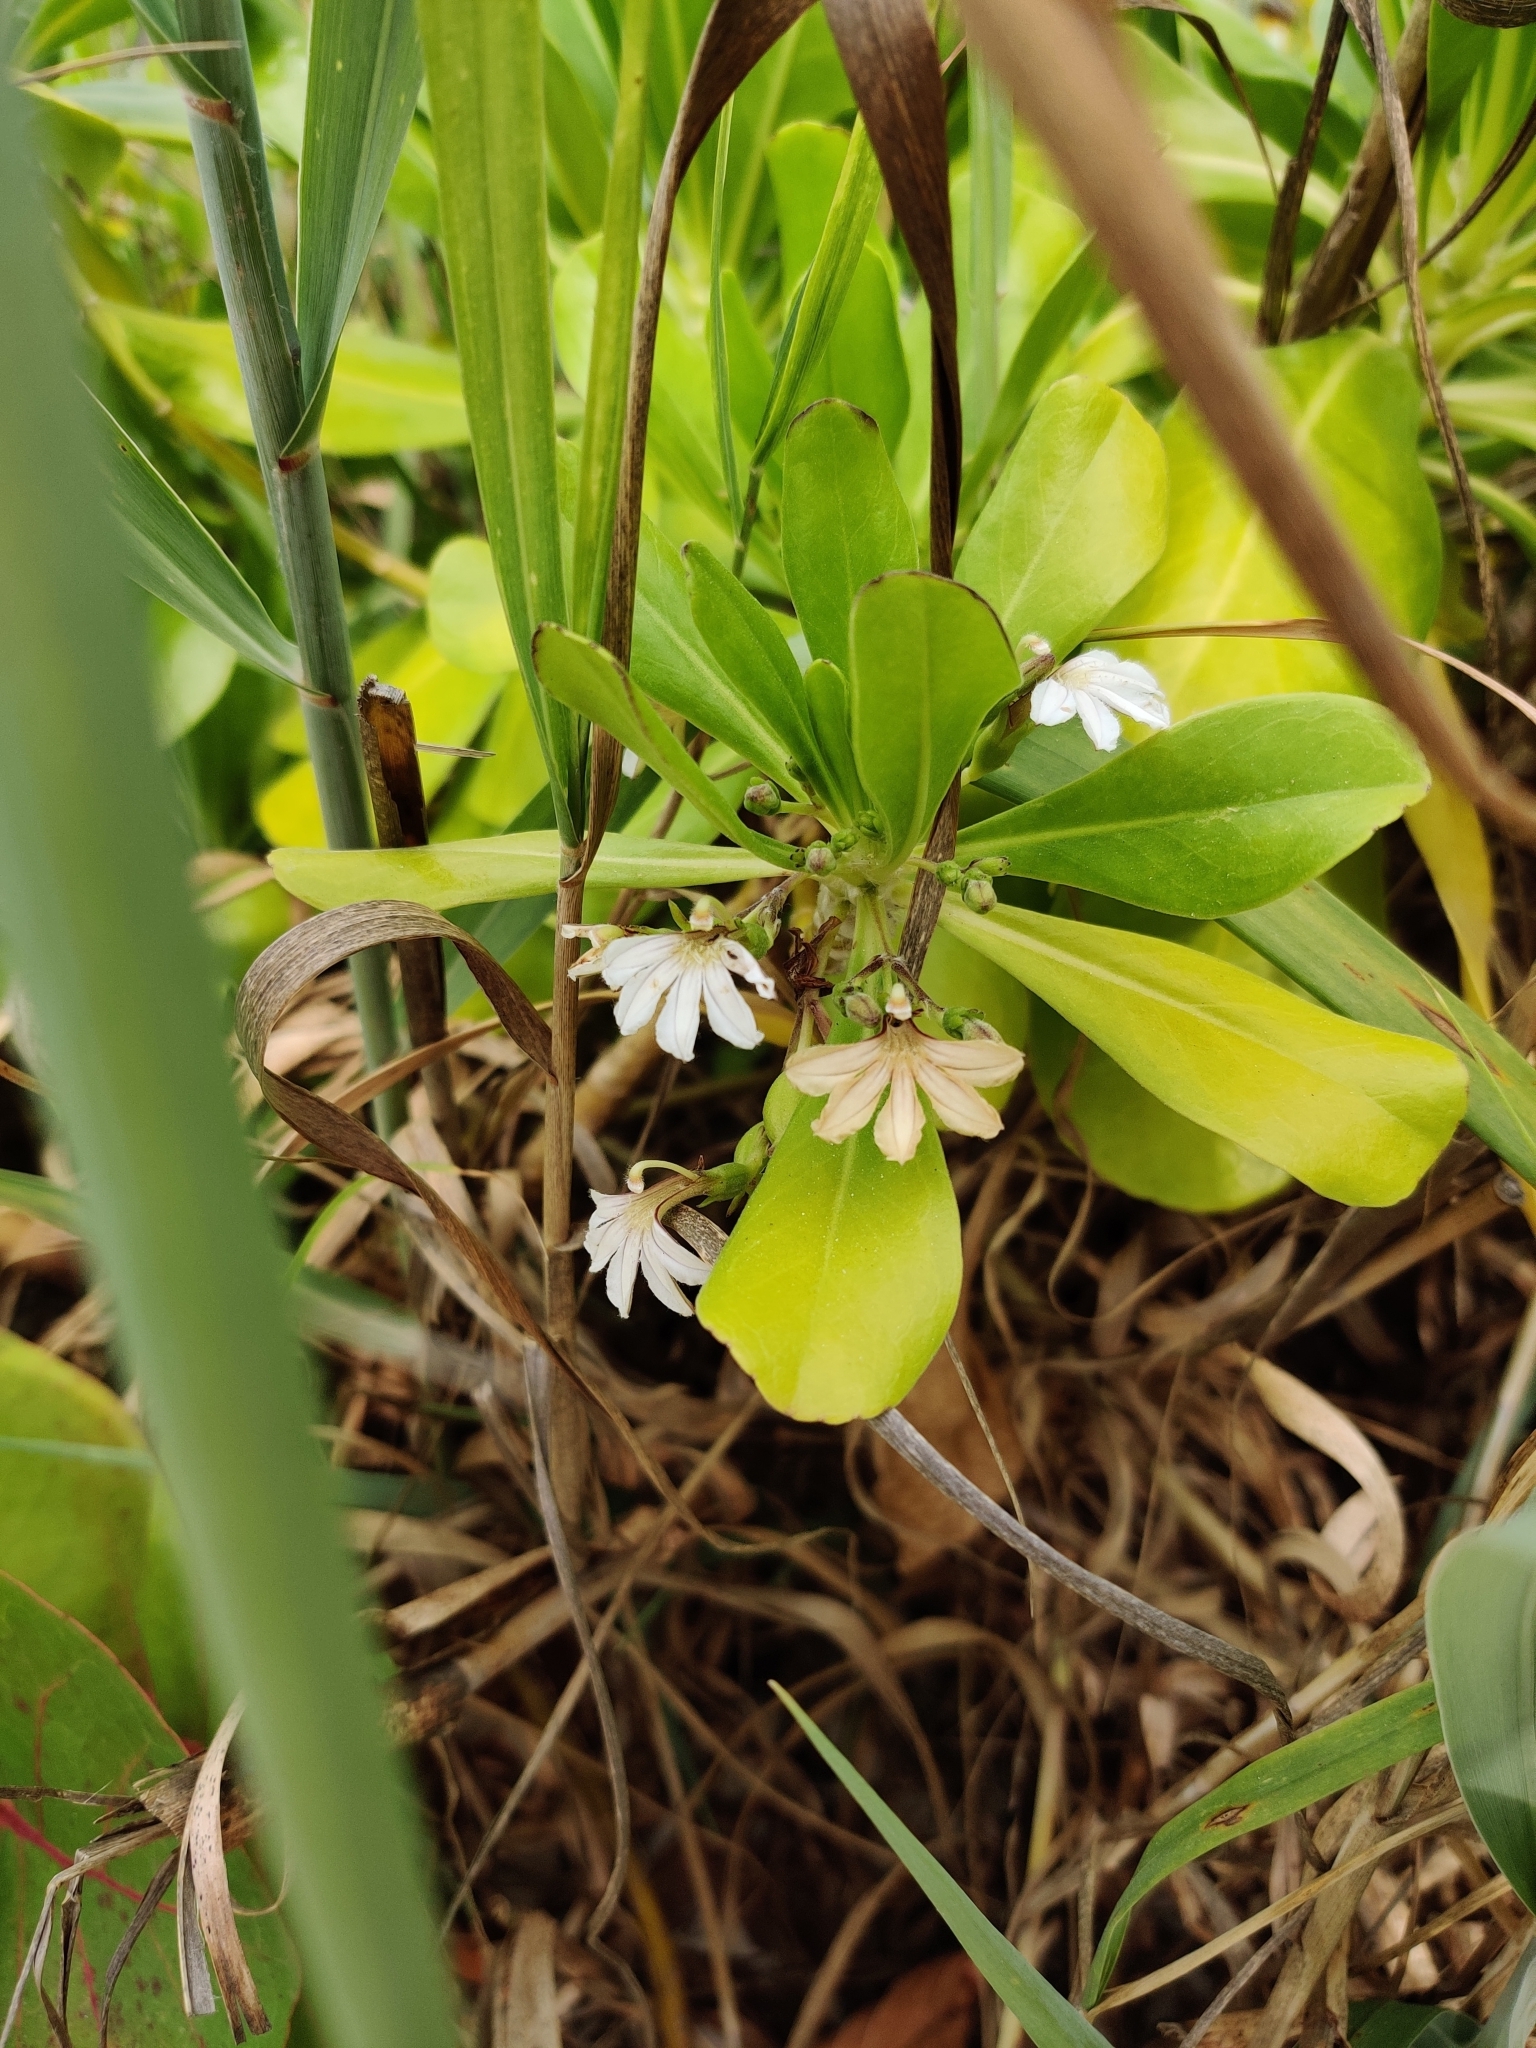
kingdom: Plantae
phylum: Tracheophyta
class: Magnoliopsida
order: Asterales
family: Goodeniaceae
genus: Scaevola
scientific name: Scaevola taccada
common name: Sea lettucetree
